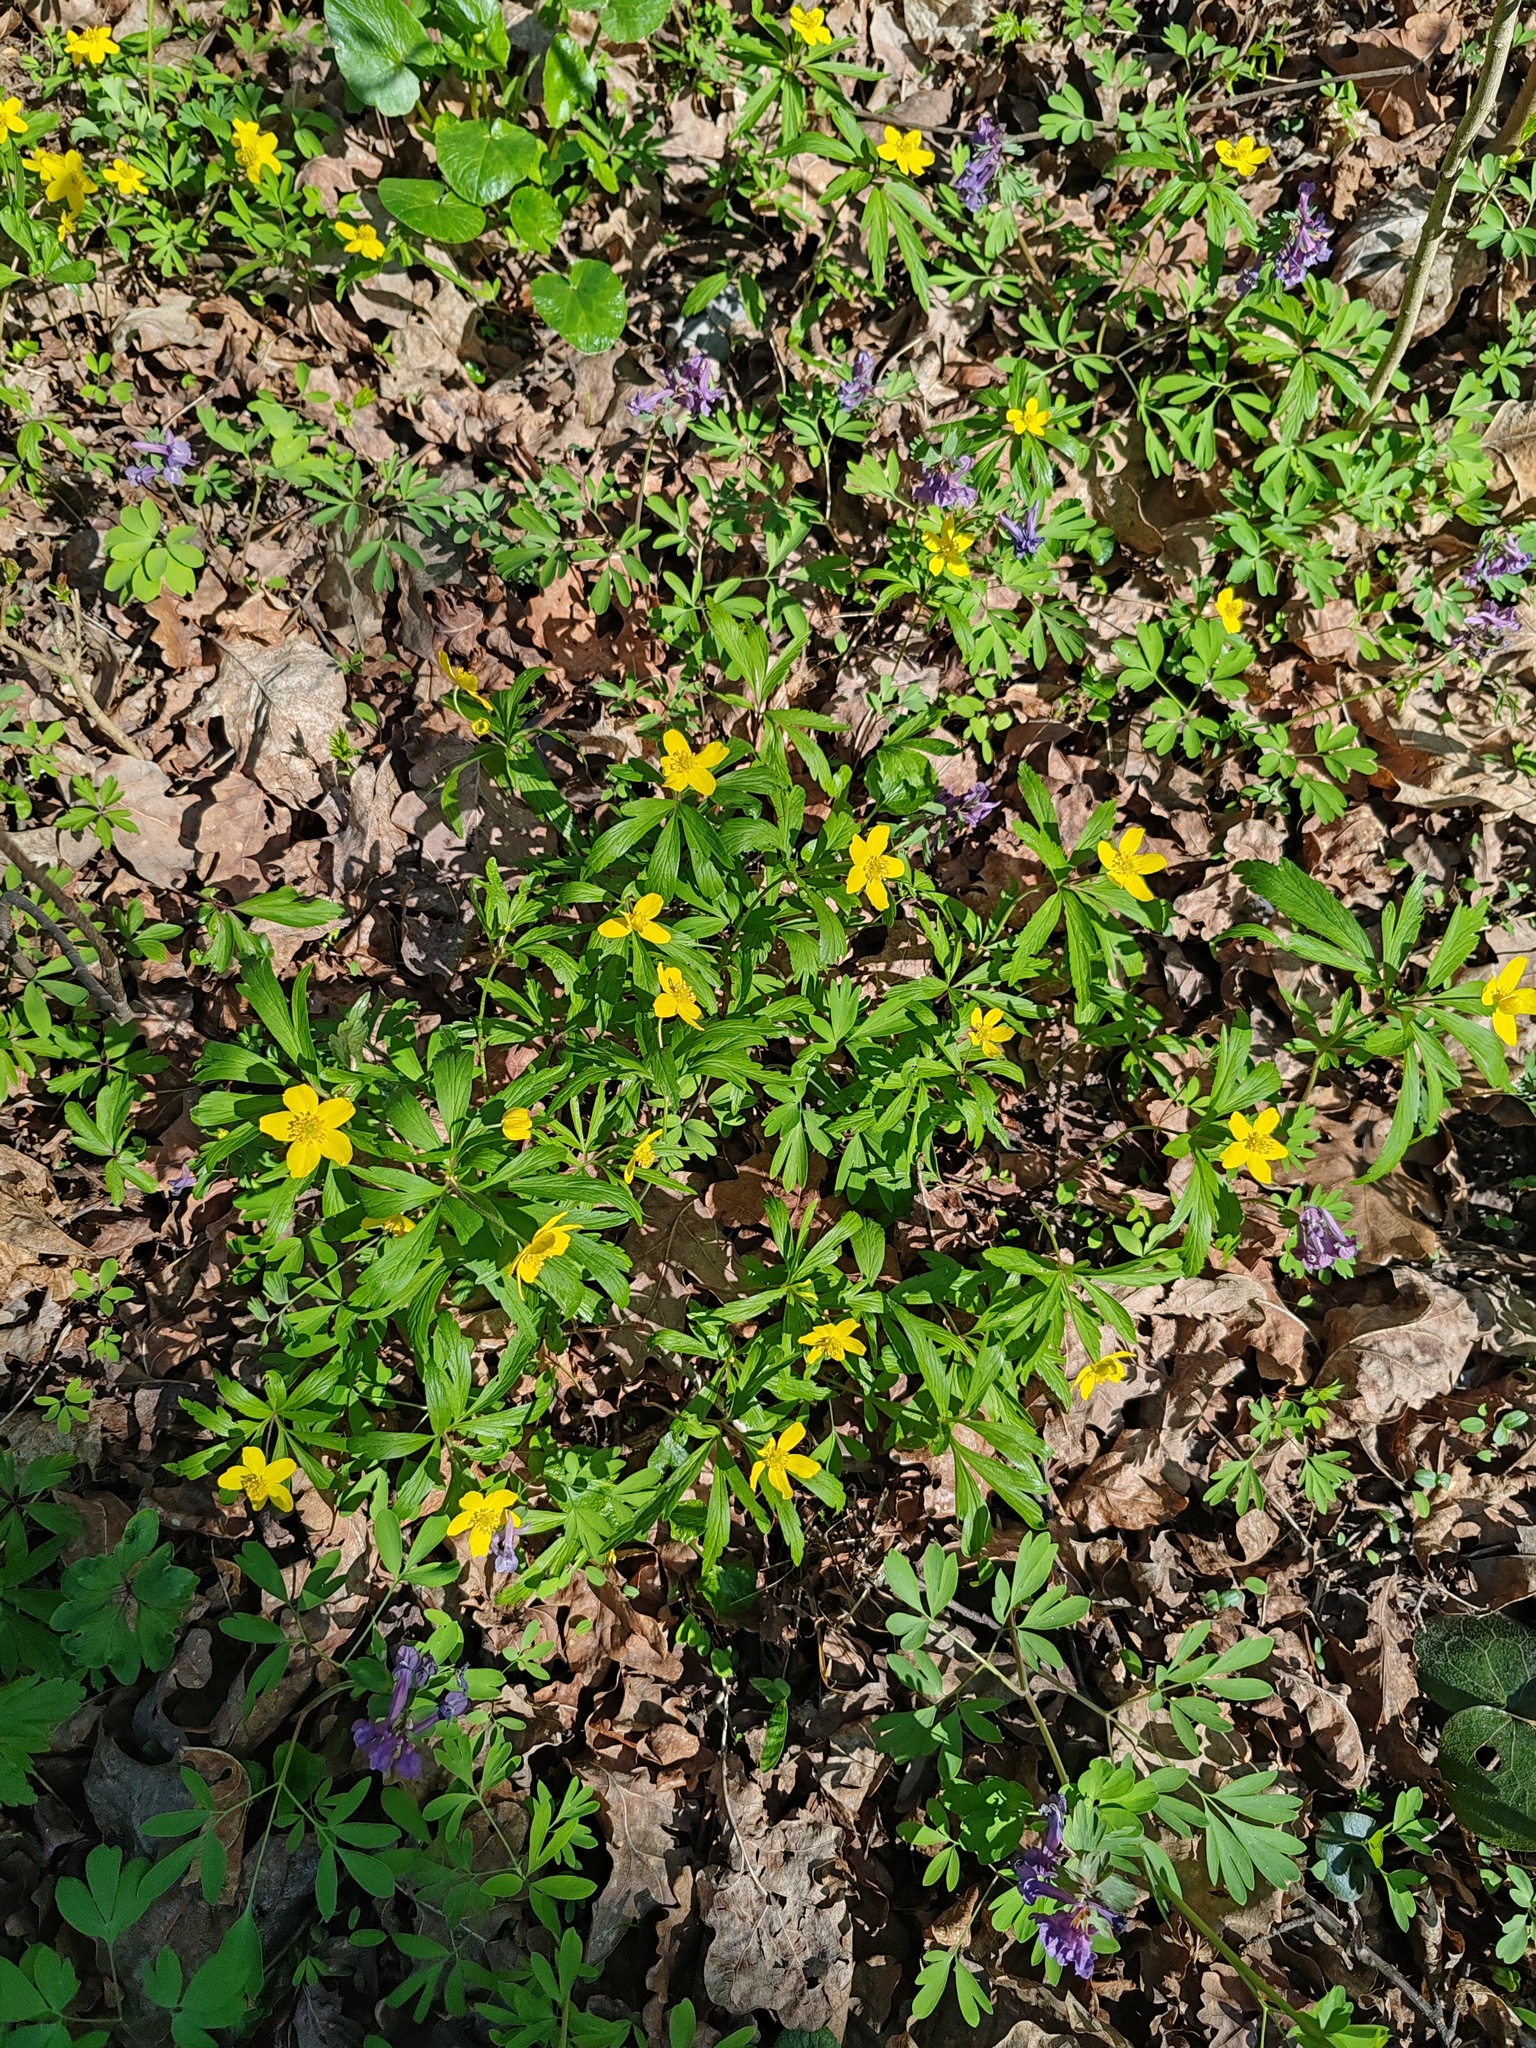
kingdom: Plantae
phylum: Tracheophyta
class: Magnoliopsida
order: Ranunculales
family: Ranunculaceae
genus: Anemone
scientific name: Anemone ranunculoides
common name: Yellow anemone
